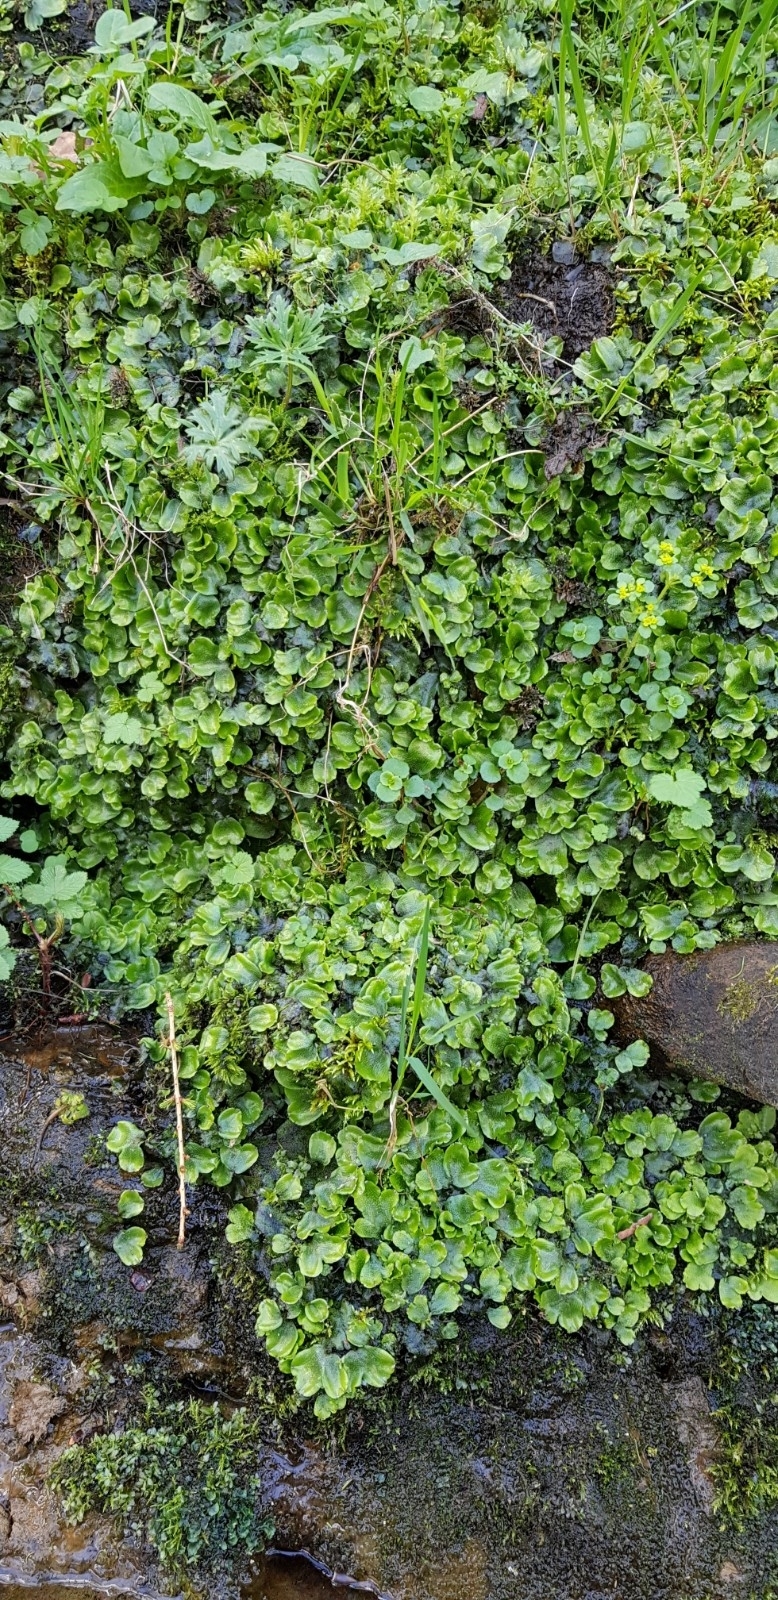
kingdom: Plantae
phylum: Marchantiophyta
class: Marchantiopsida
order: Marchantiales
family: Conocephalaceae
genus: Conocephalum
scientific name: Conocephalum conicum
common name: Great scented liverwort
